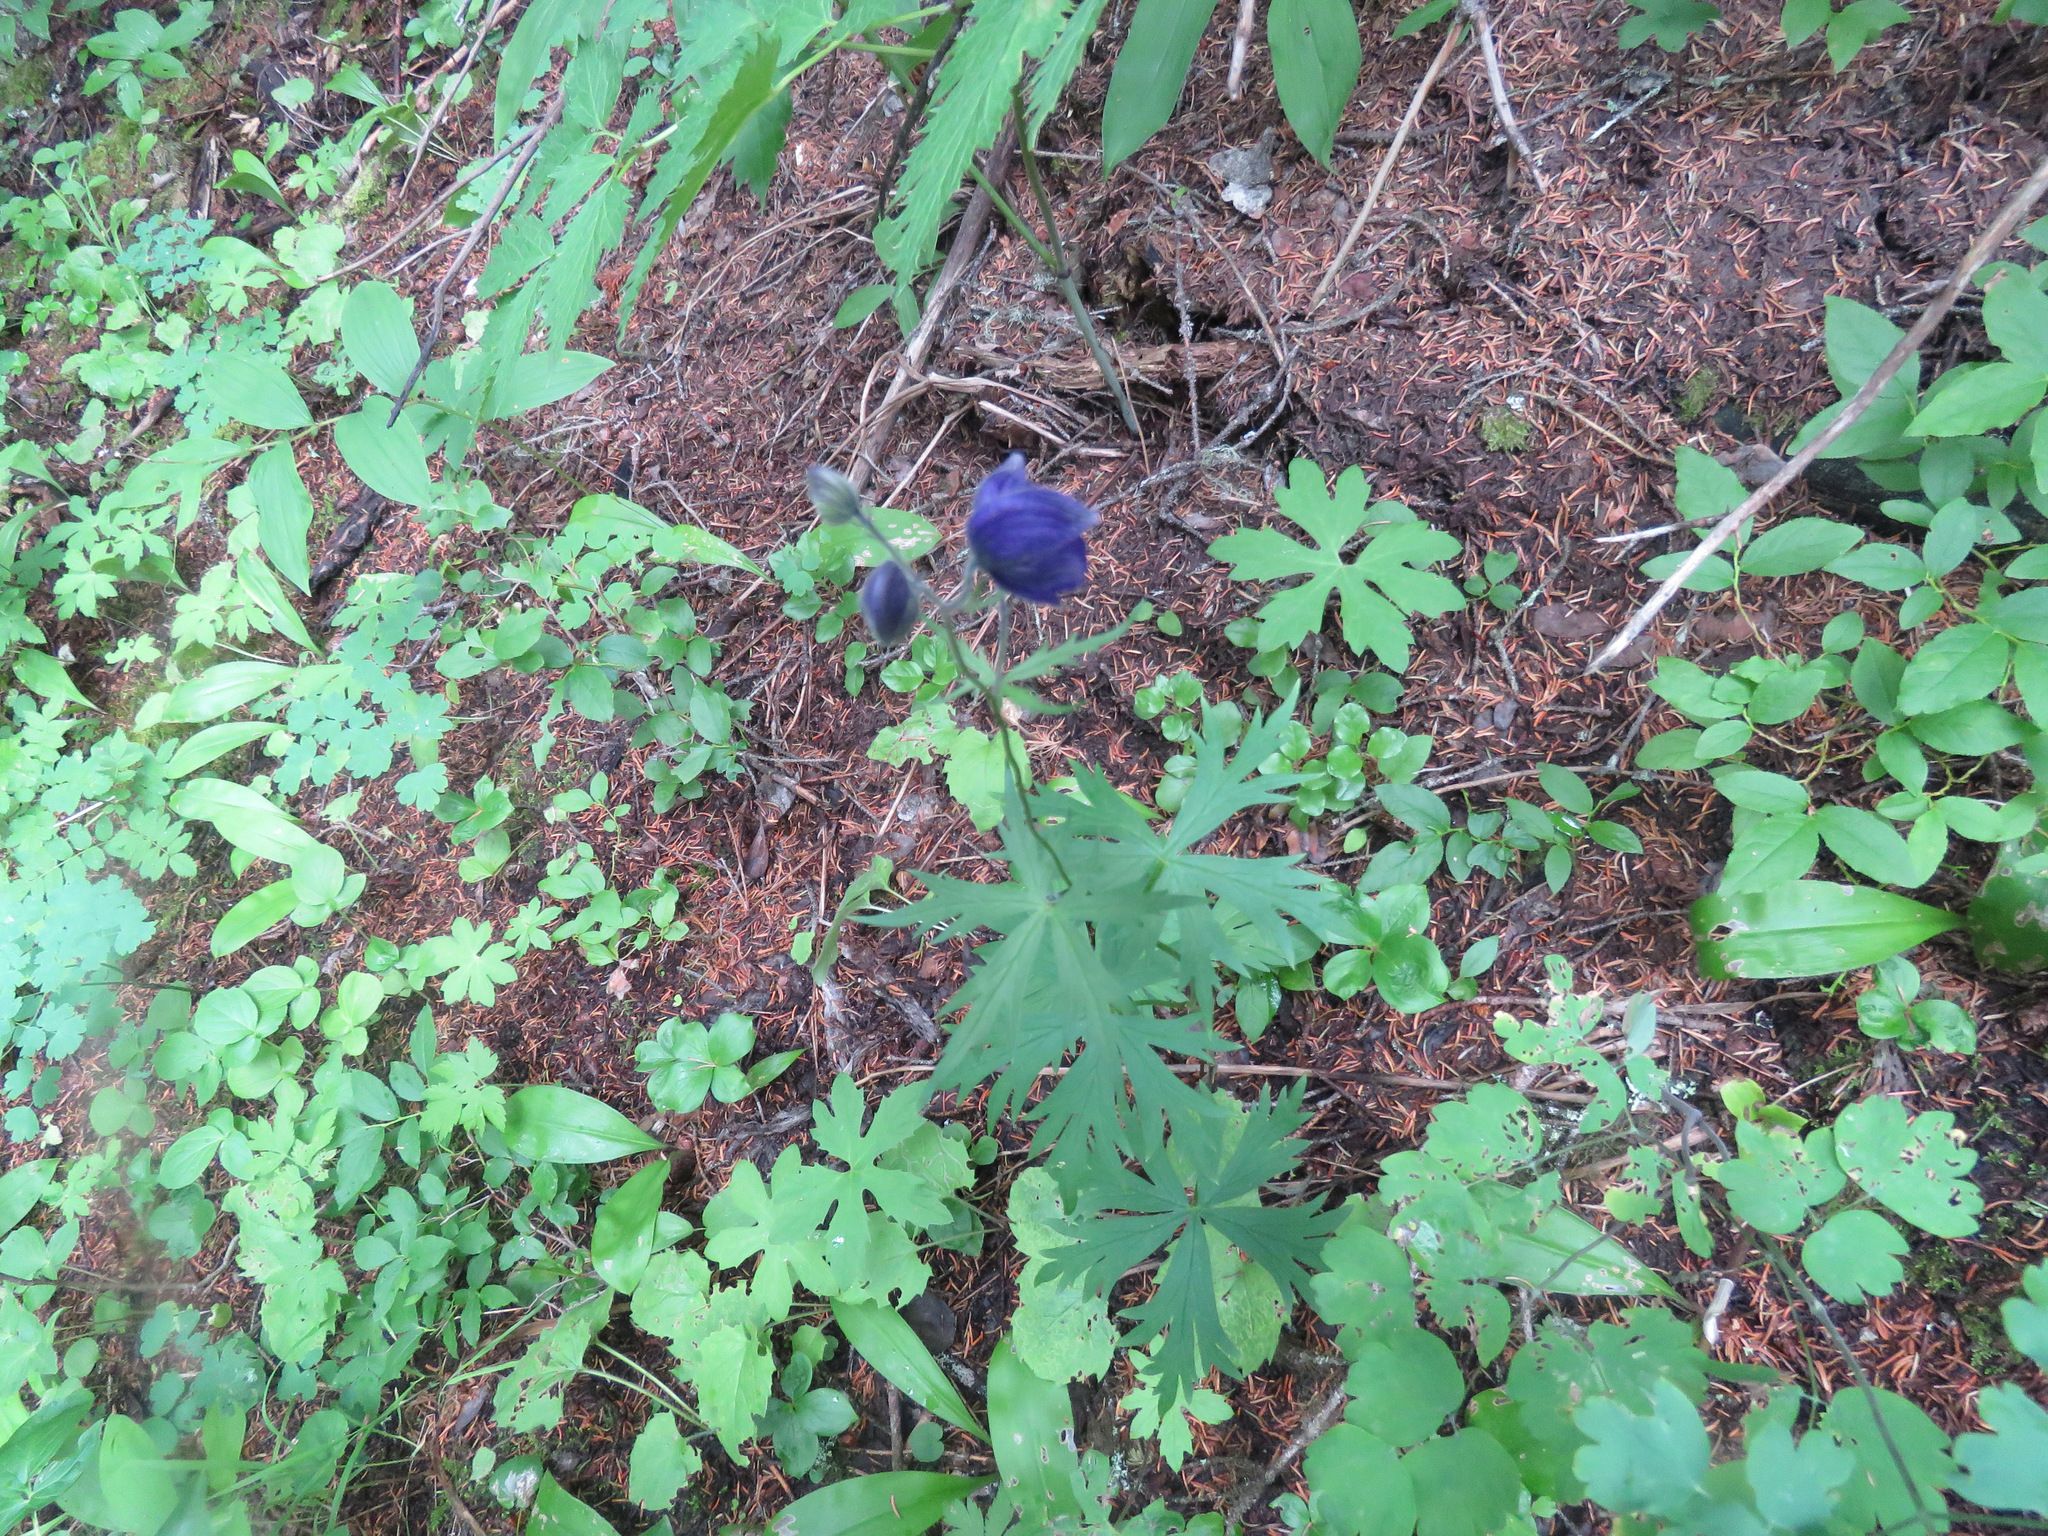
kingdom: Plantae
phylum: Tracheophyta
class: Magnoliopsida
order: Ranunculales
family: Ranunculaceae
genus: Aconitum
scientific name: Aconitum delphiniifolium
